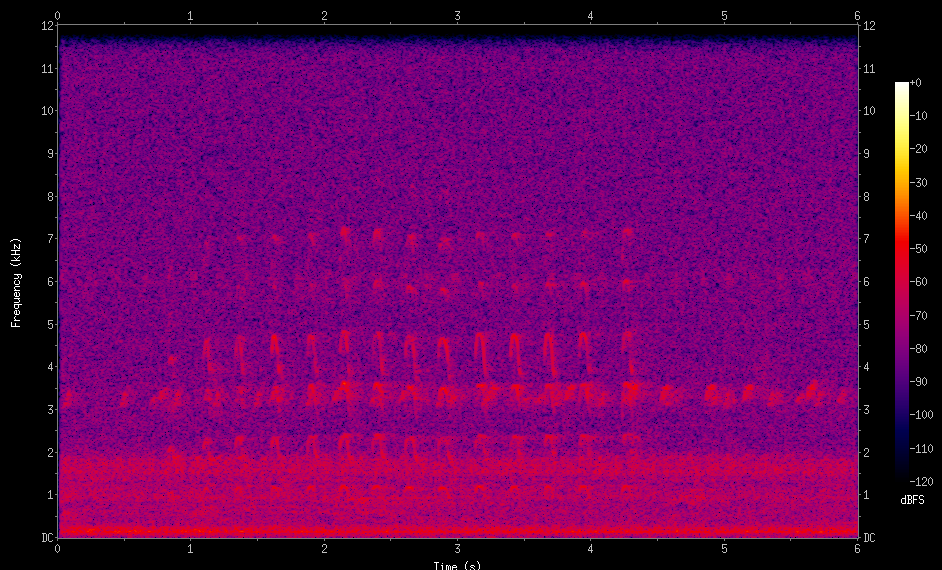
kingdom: Animalia
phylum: Chordata
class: Aves
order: Charadriiformes
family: Charadriidae
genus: Vanellus
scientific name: Vanellus chilensis
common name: Southern lapwing
